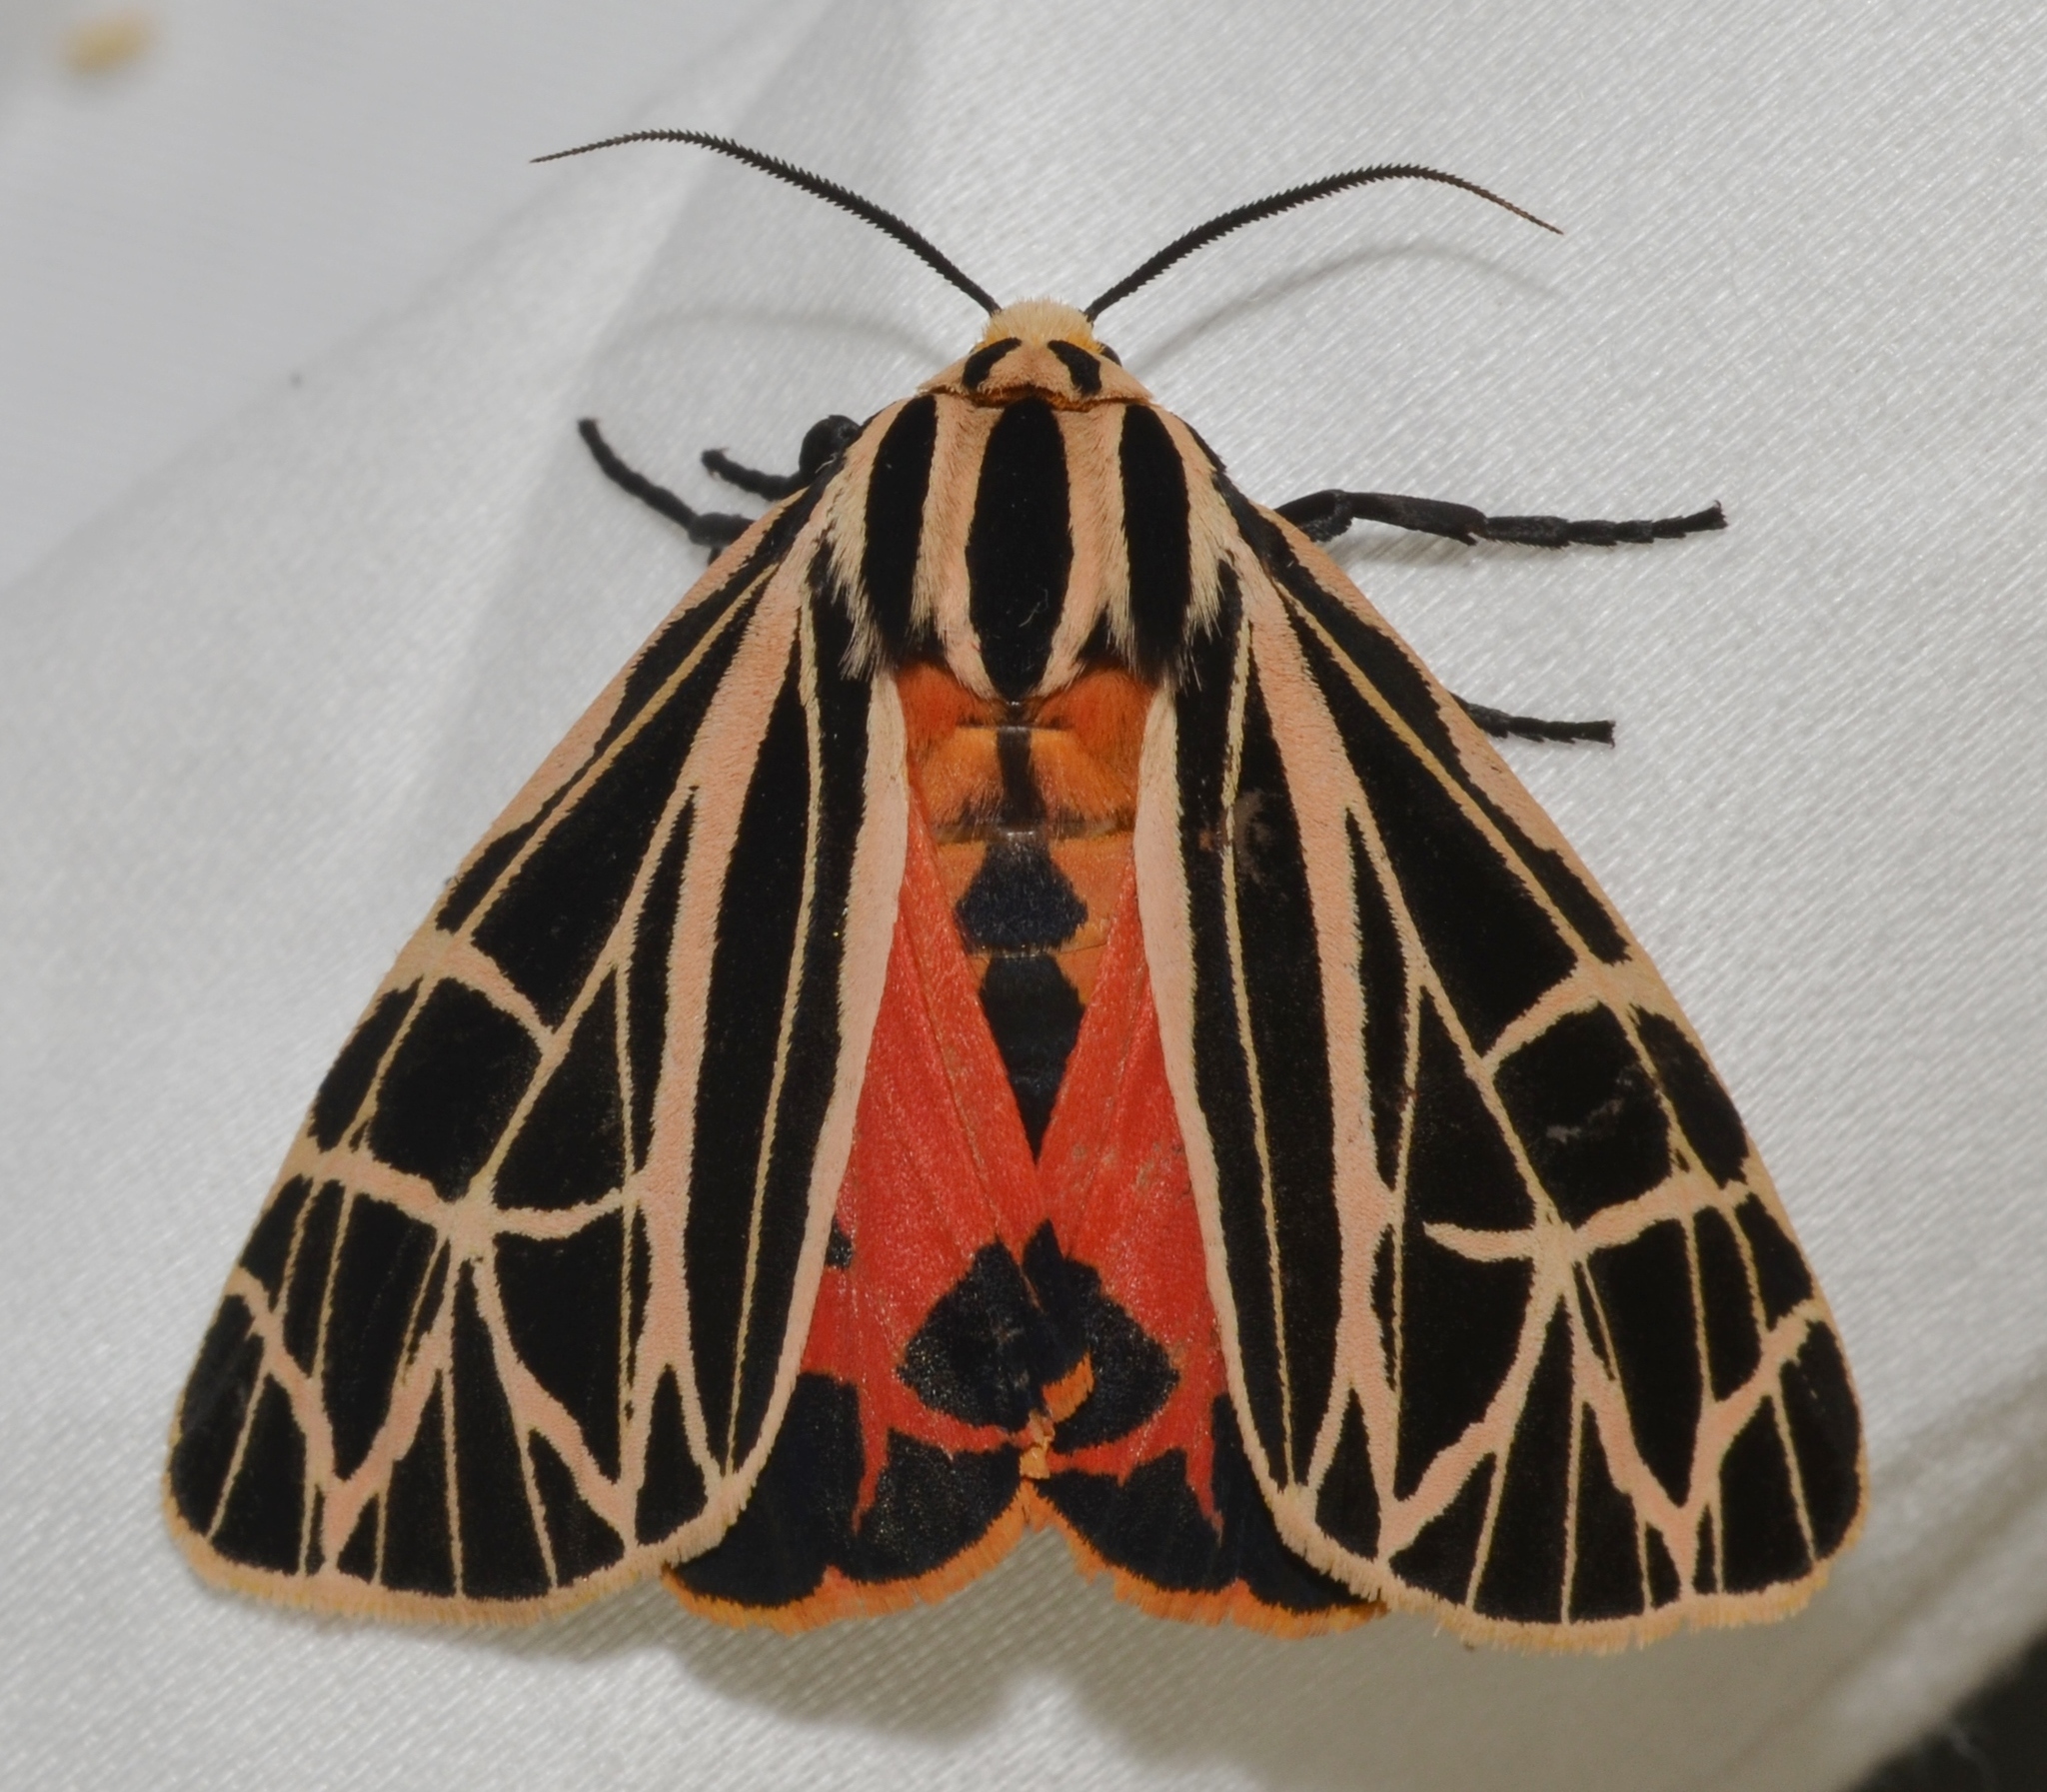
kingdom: Animalia
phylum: Arthropoda
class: Insecta
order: Lepidoptera
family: Erebidae
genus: Grammia
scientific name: Grammia parthenice
